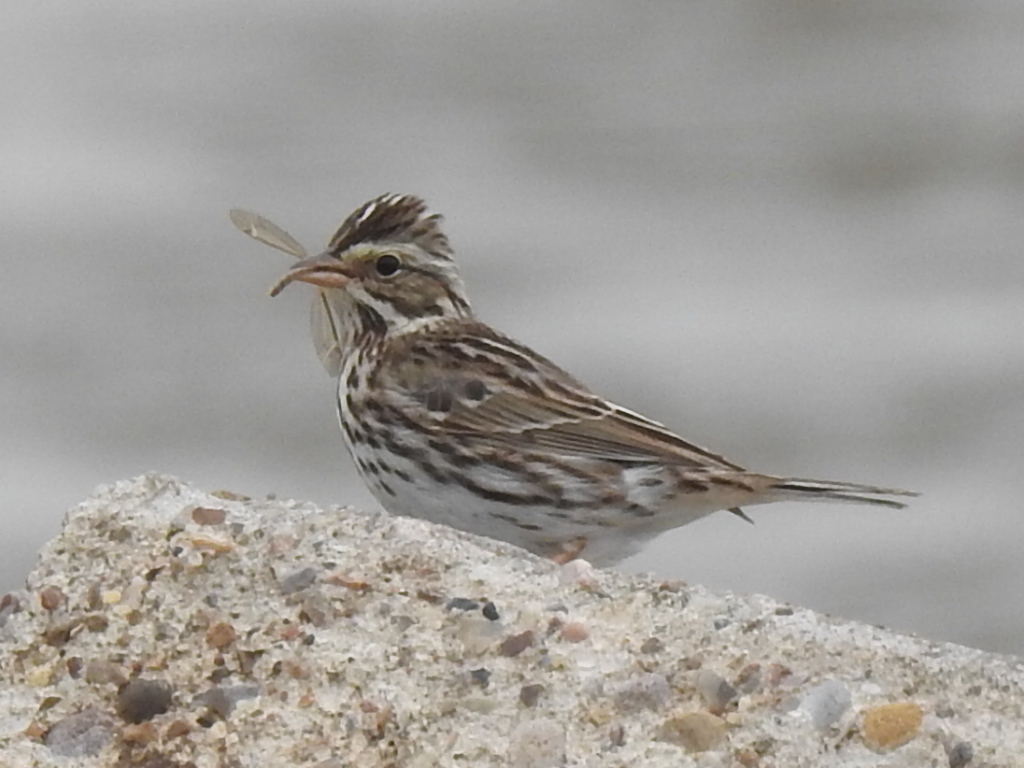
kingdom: Animalia
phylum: Chordata
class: Aves
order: Passeriformes
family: Passerellidae
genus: Passerculus
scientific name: Passerculus sandwichensis
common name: Savannah sparrow
